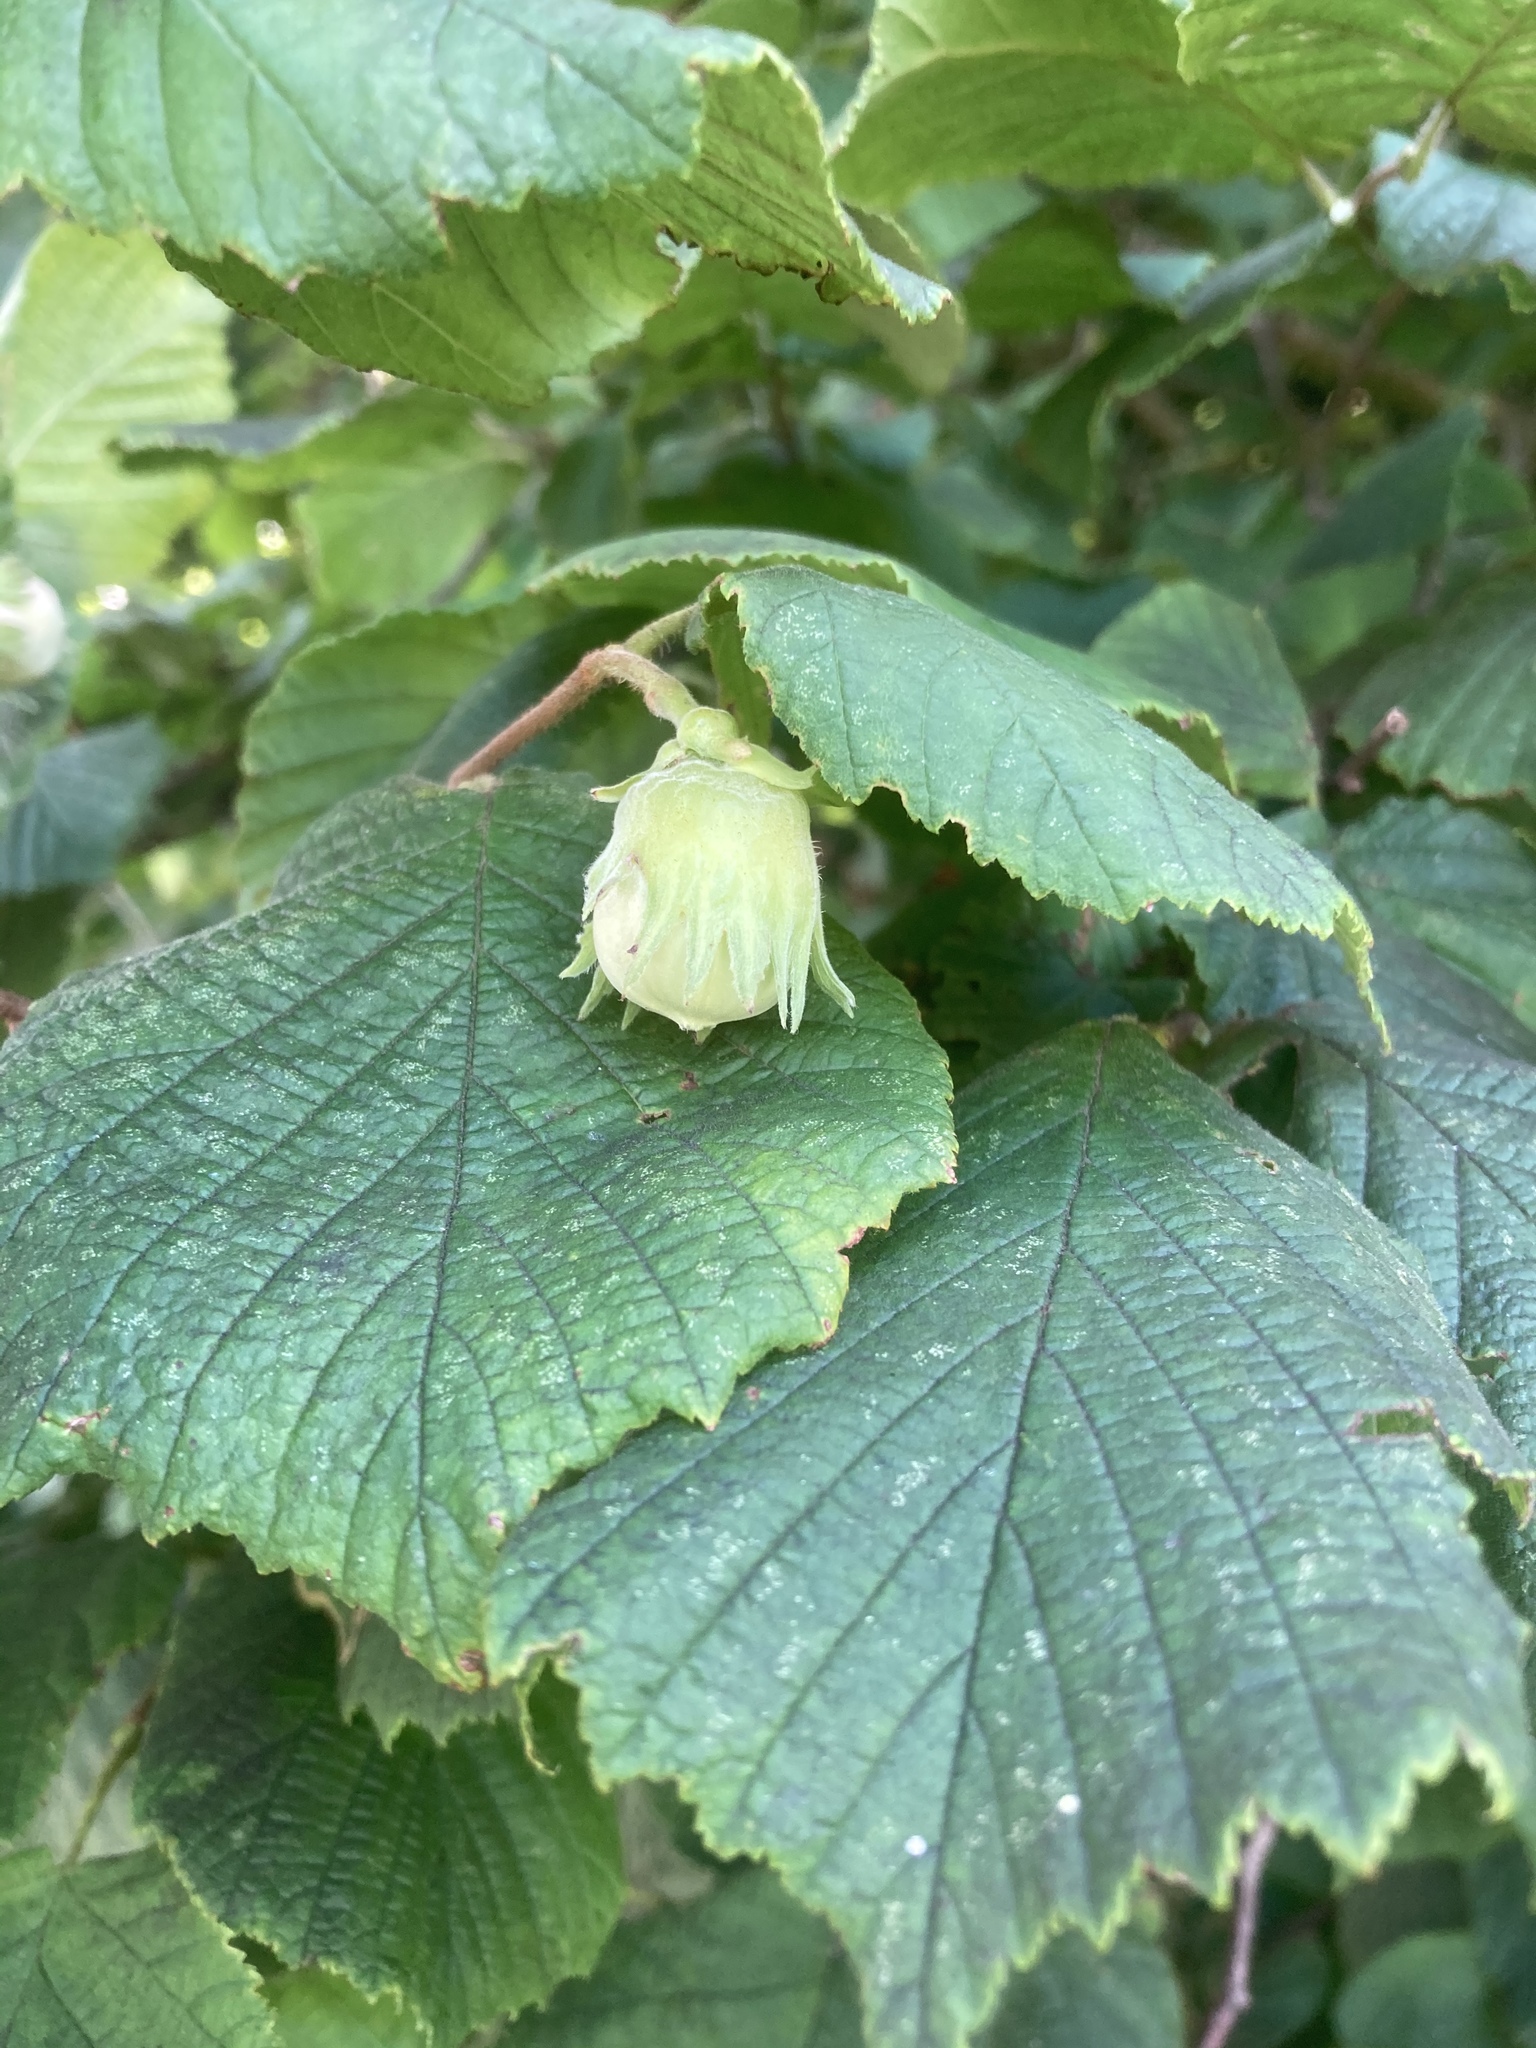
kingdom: Plantae
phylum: Tracheophyta
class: Magnoliopsida
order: Fagales
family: Betulaceae
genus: Corylus
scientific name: Corylus avellana
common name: European hazel
